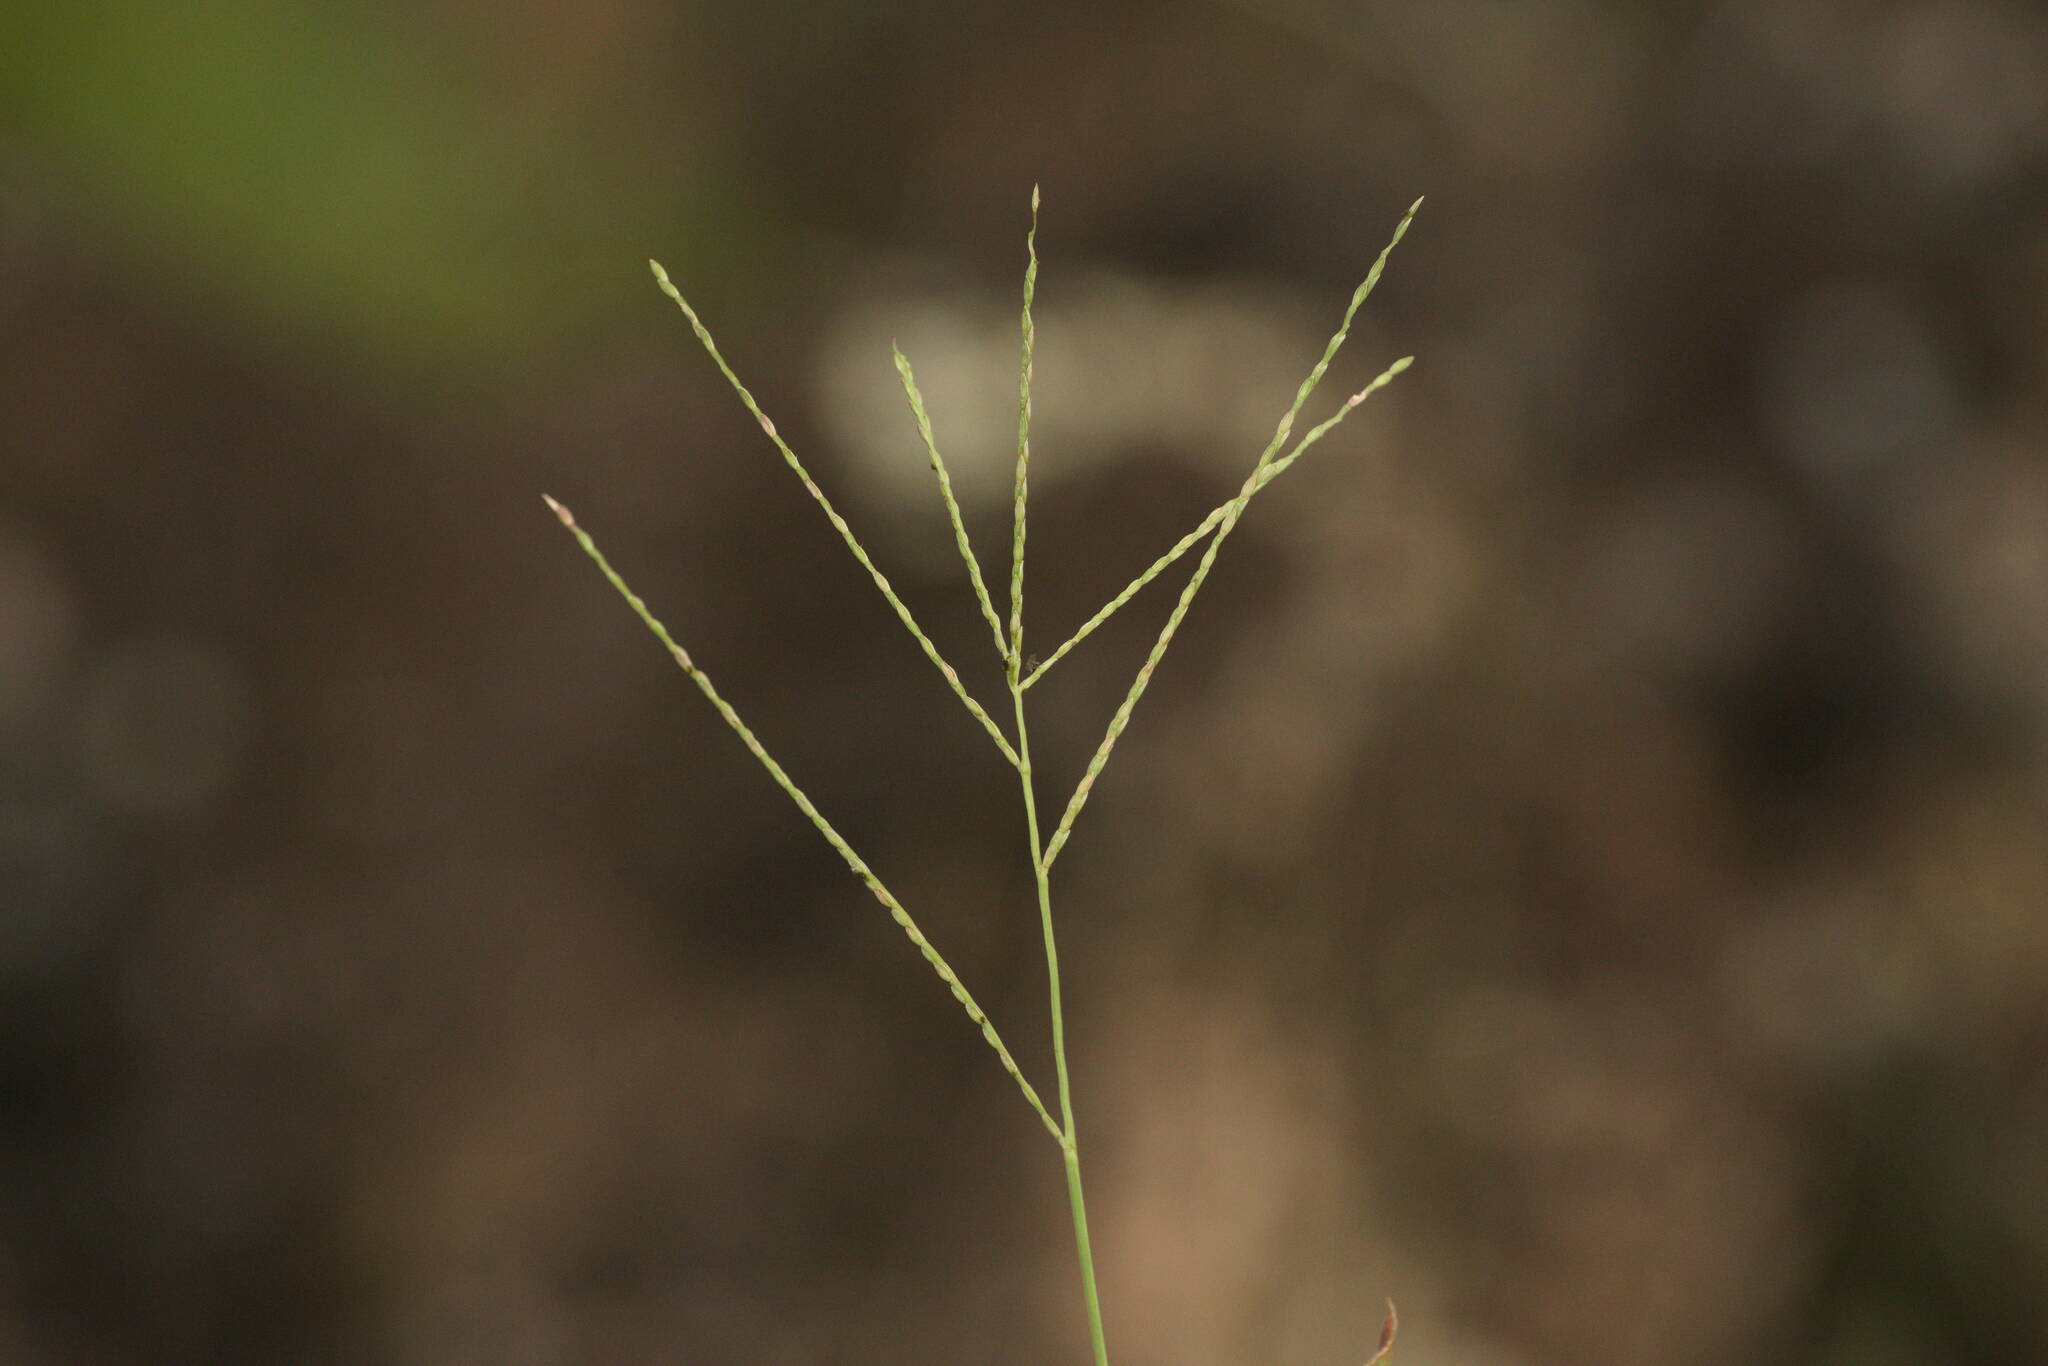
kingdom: Plantae
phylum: Tracheophyta
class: Liliopsida
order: Poales
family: Poaceae
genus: Axonopus
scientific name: Axonopus compressus
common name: American carpet grass
